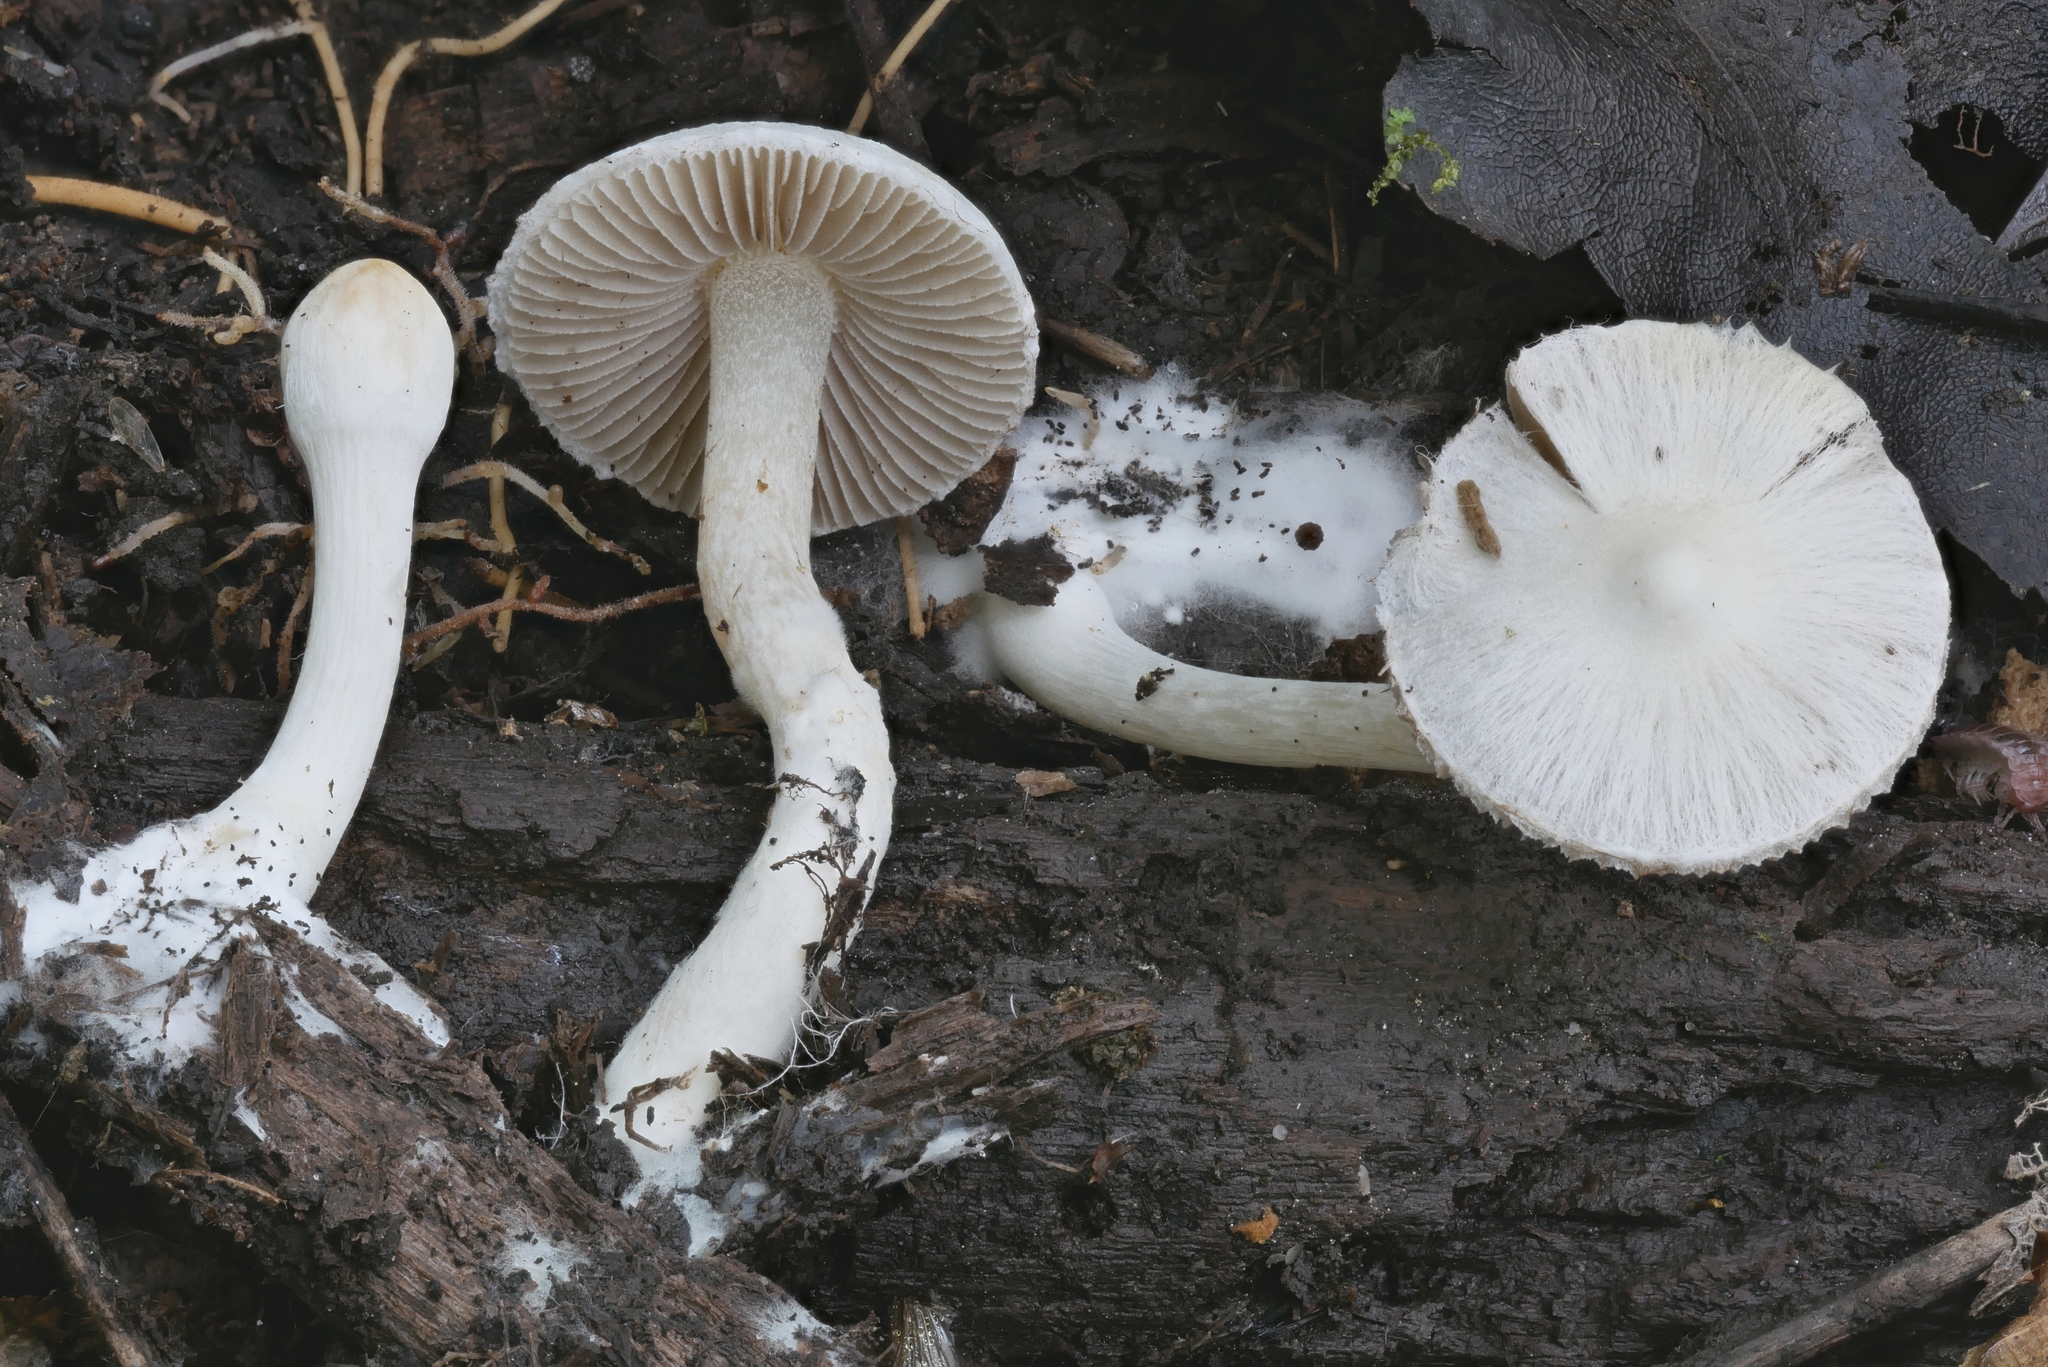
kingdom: Fungi
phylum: Basidiomycota
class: Agaricomycetes
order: Agaricales
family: Inocybaceae
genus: Inocybe
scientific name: Inocybe geophylla
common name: White fibrecap
